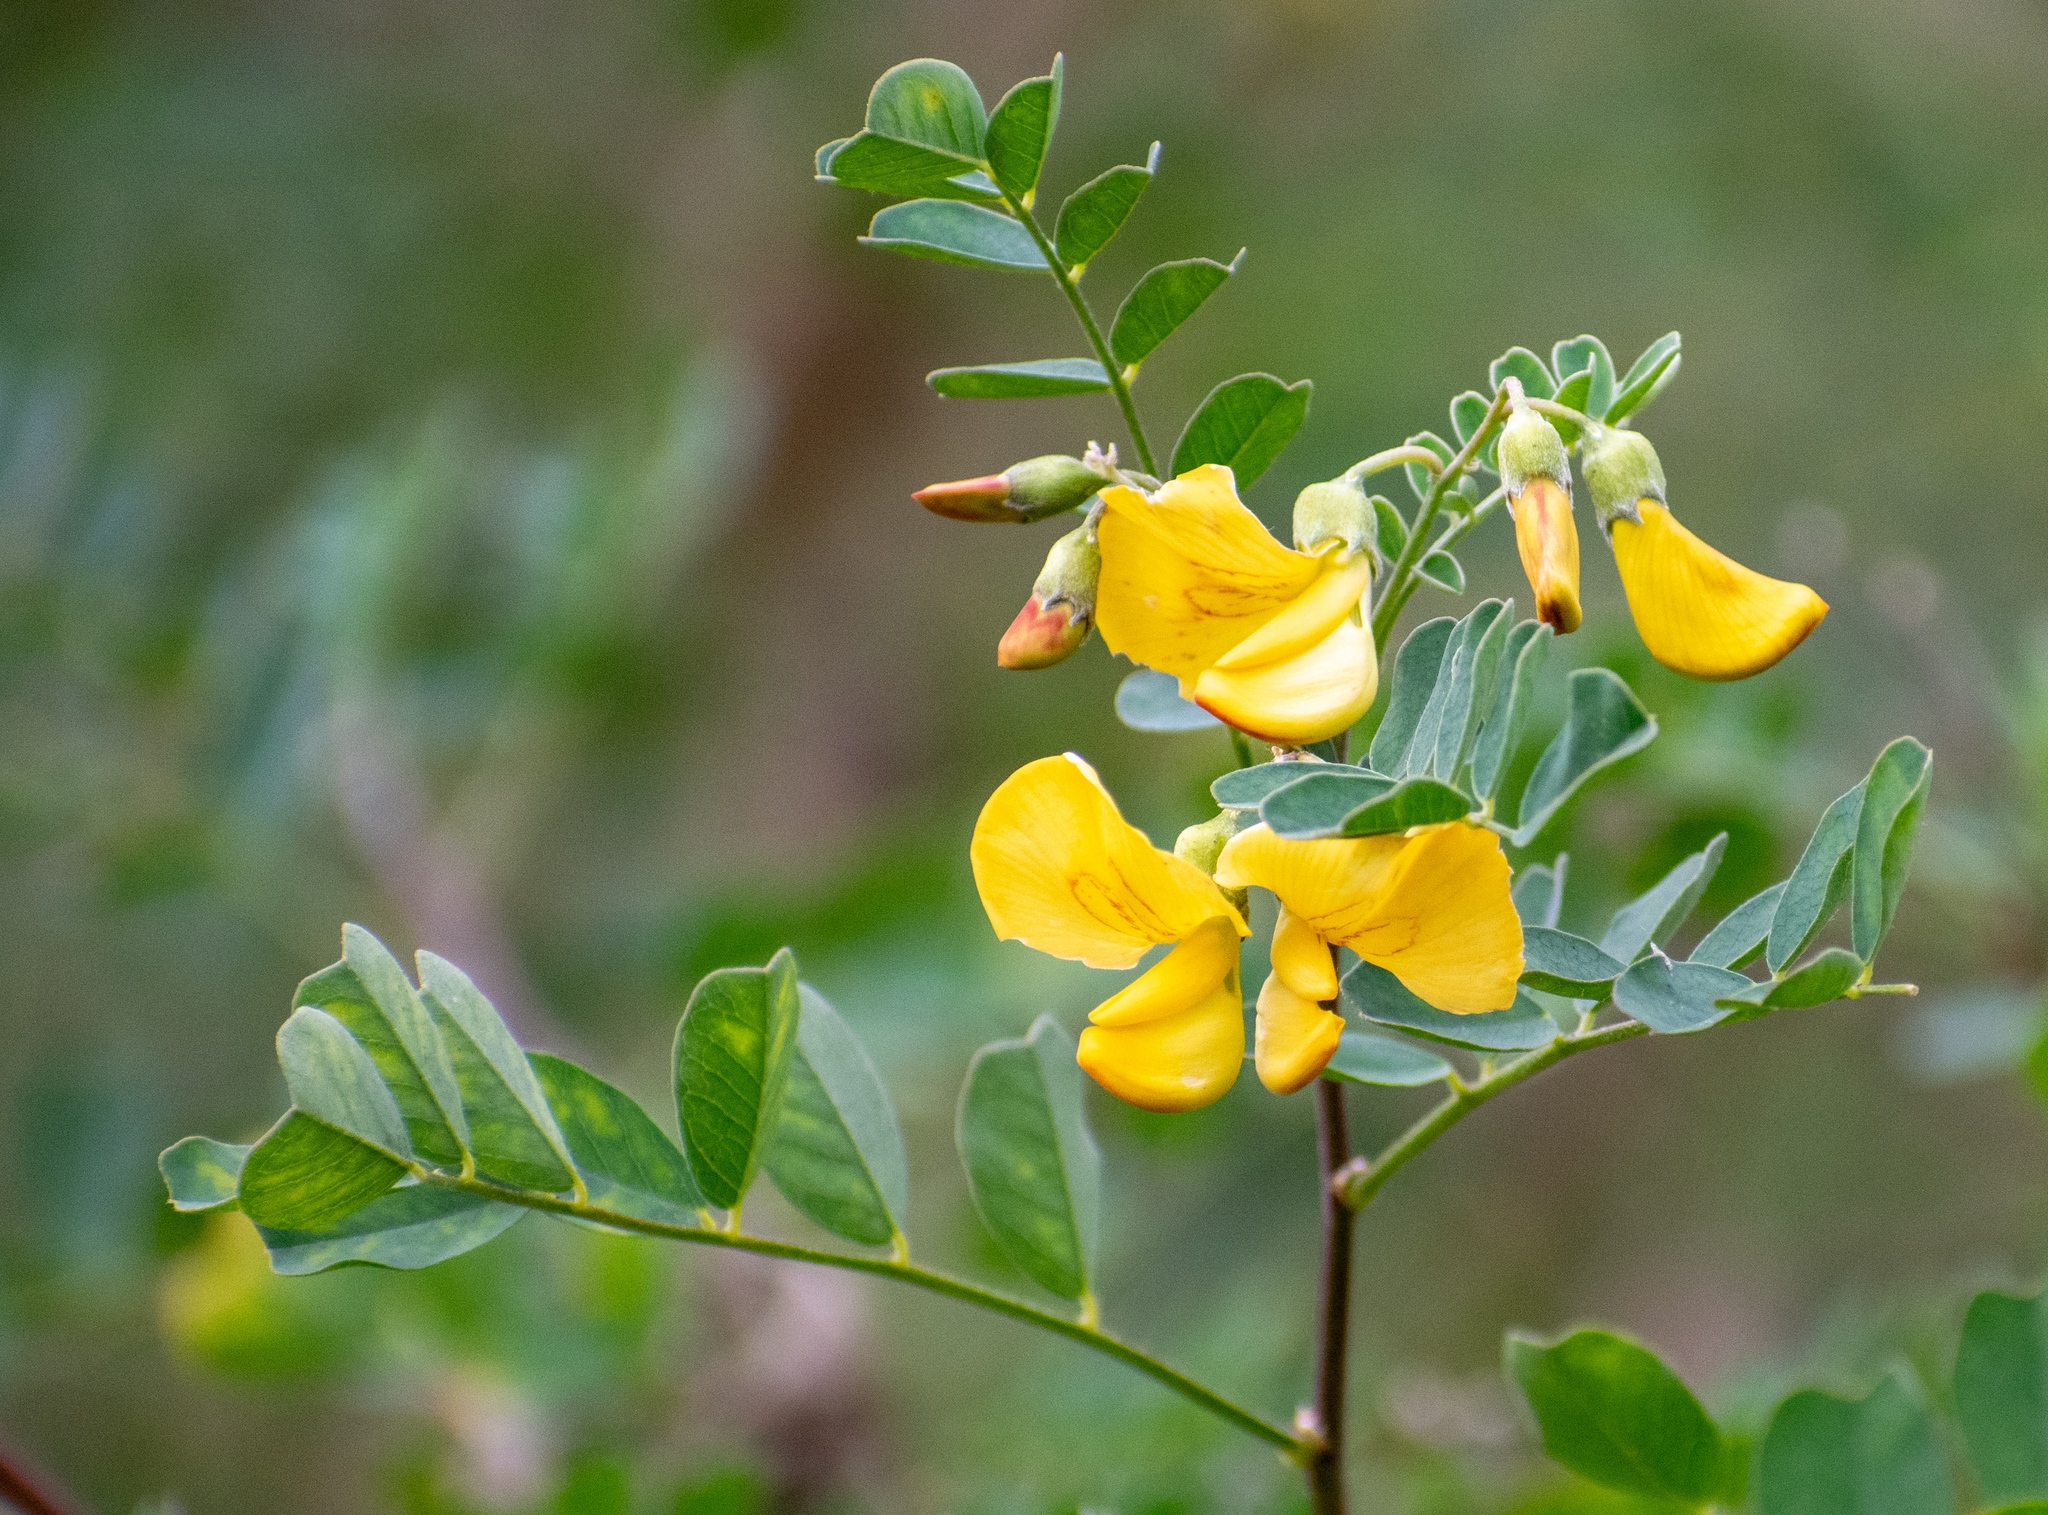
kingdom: Plantae
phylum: Tracheophyta
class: Magnoliopsida
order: Fabales
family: Fabaceae
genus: Hippocrepis
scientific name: Hippocrepis emerus
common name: Scorpion senna
